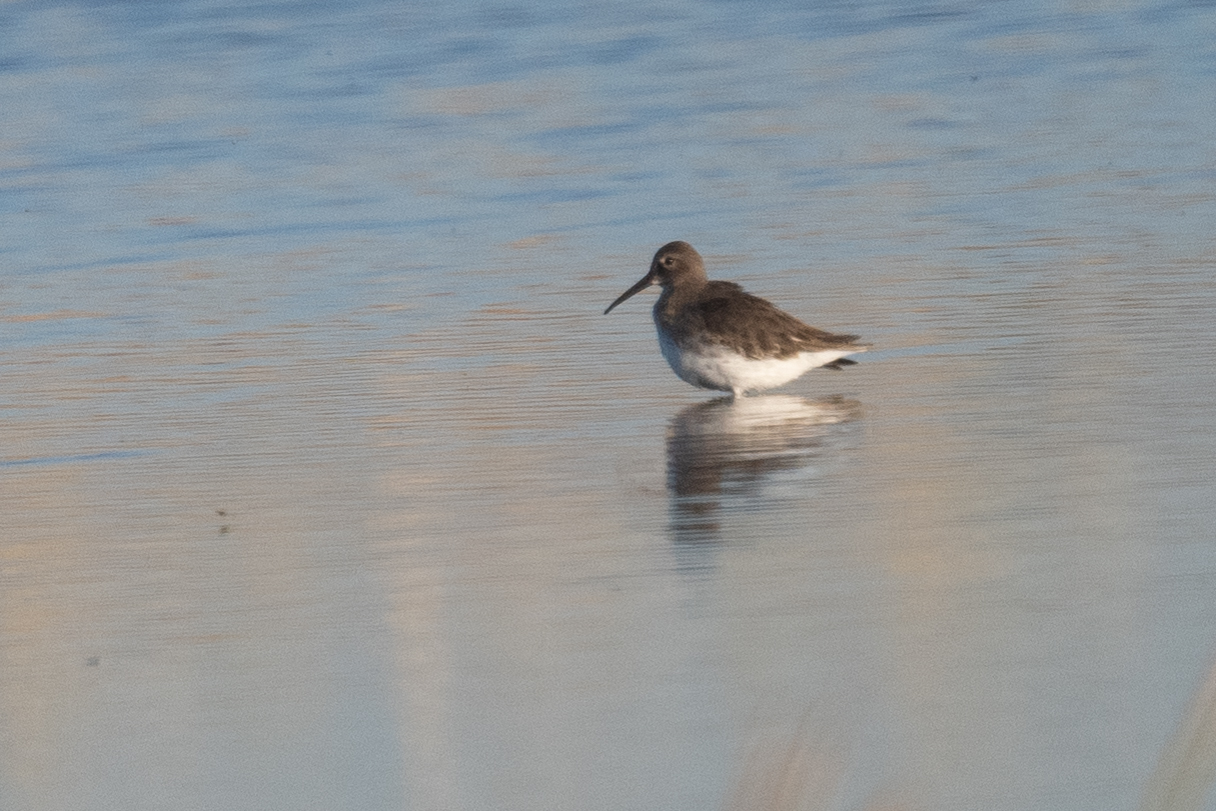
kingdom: Animalia
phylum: Chordata
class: Aves
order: Charadriiformes
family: Scolopacidae
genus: Calidris
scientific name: Calidris alpina
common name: Dunlin
